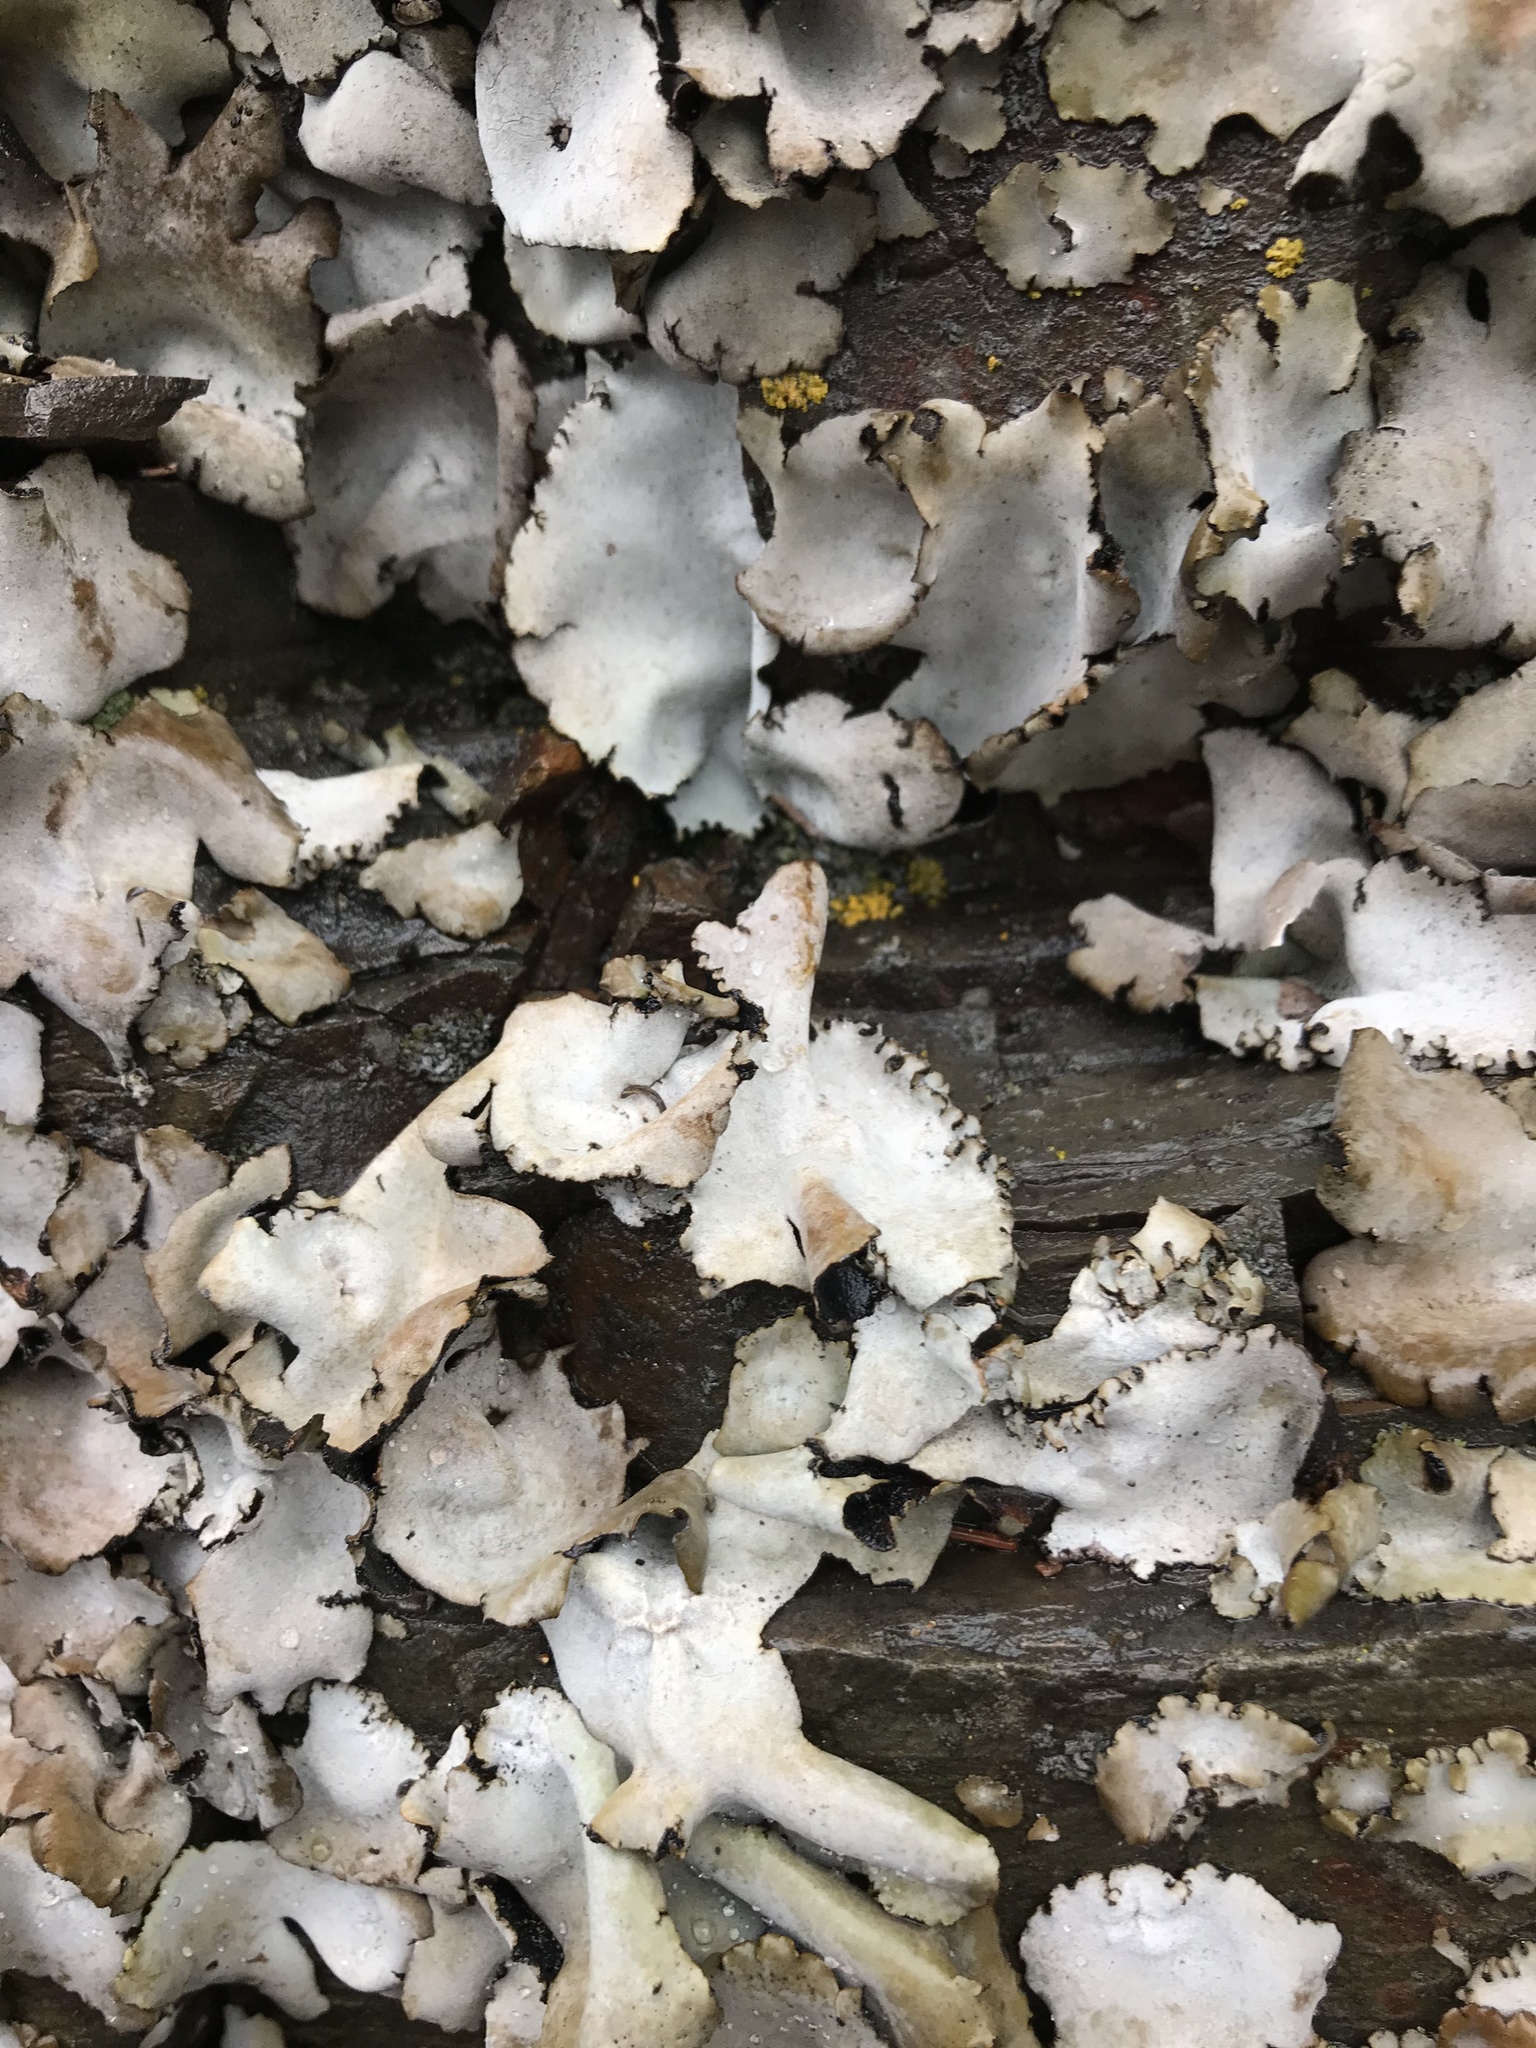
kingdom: Fungi
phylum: Ascomycota
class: Lecanoromycetes
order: Umbilicariales
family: Umbilicariaceae
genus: Umbilicaria
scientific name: Umbilicaria americana
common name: Frosted rock tripe
